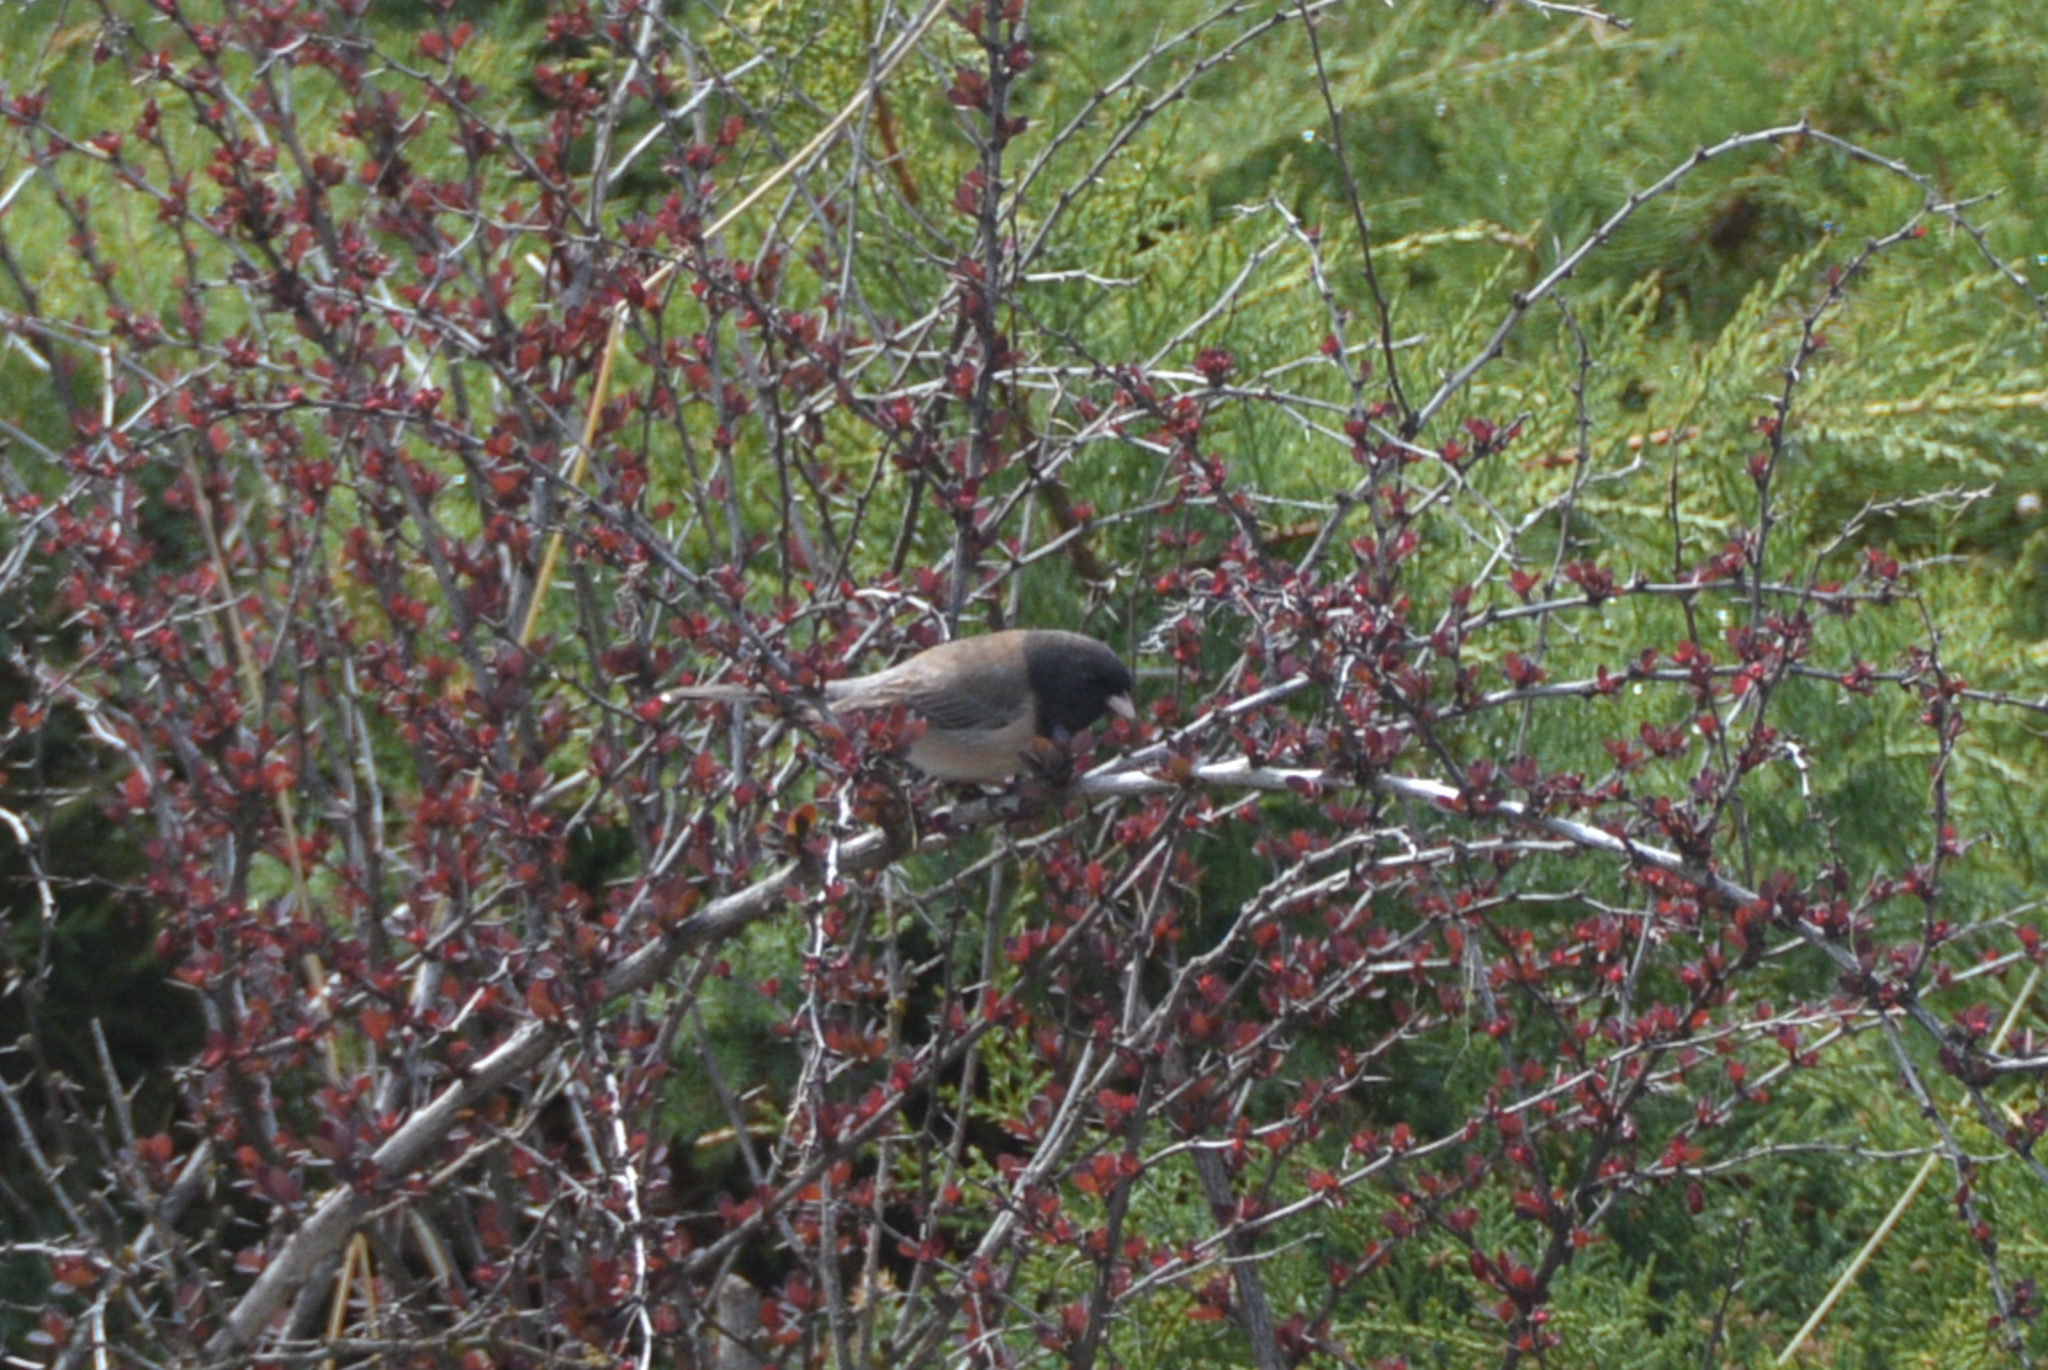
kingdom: Animalia
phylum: Chordata
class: Aves
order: Passeriformes
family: Passerellidae
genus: Junco
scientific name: Junco hyemalis
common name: Dark-eyed junco
